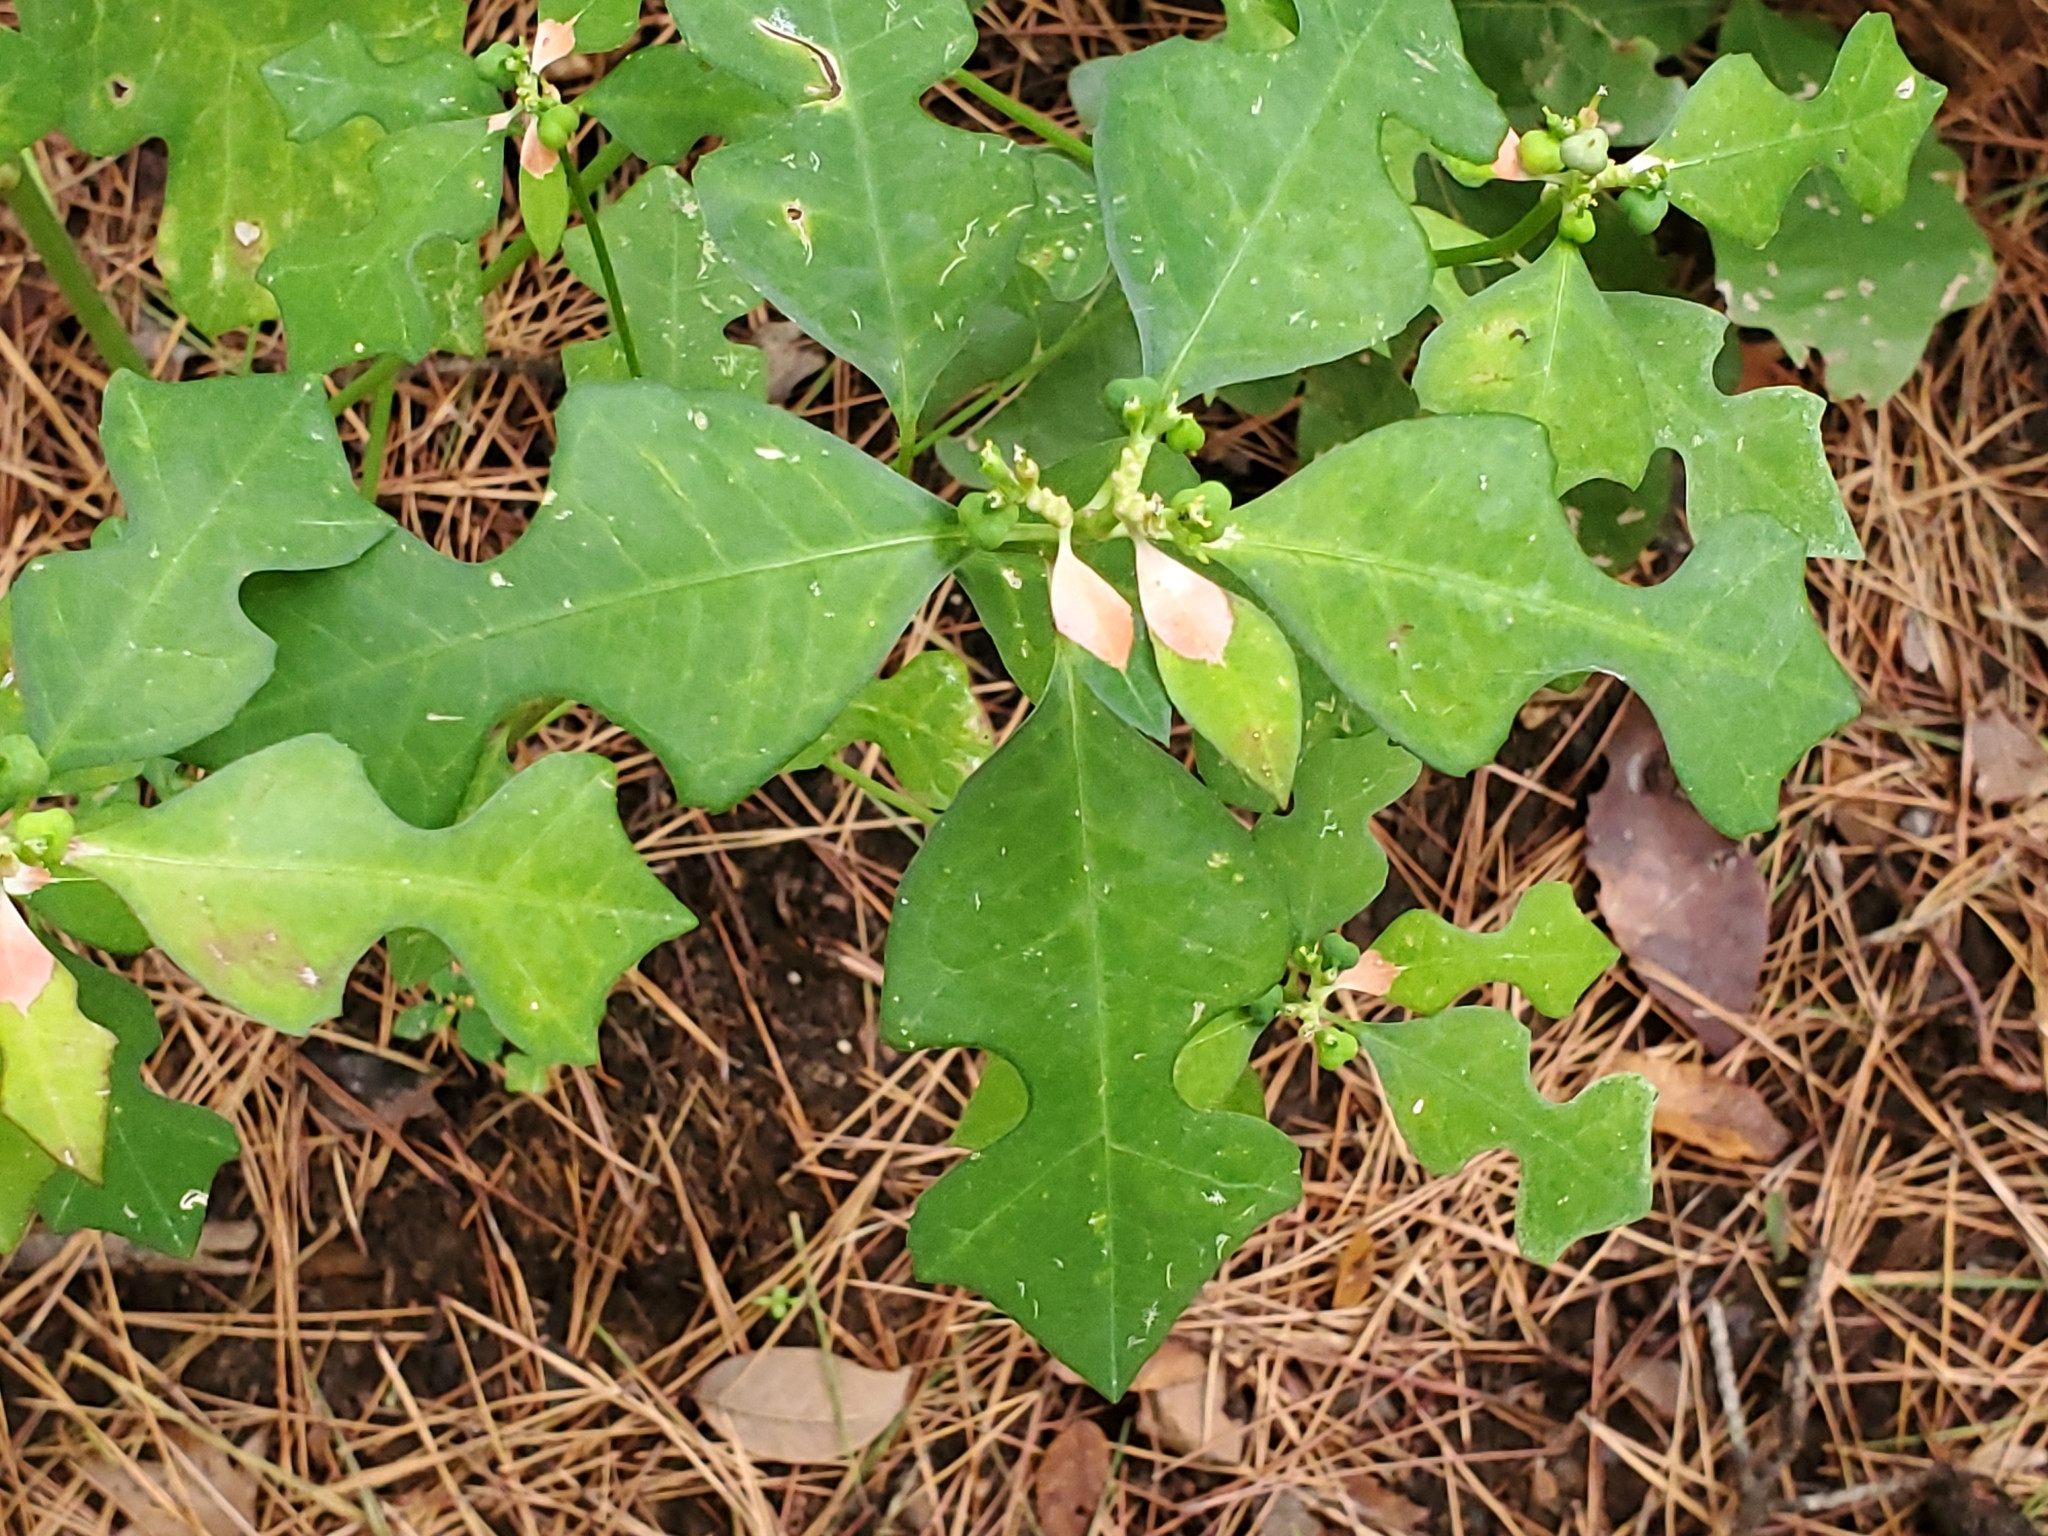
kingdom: Plantae
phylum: Tracheophyta
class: Magnoliopsida
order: Malpighiales
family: Euphorbiaceae
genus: Euphorbia
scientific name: Euphorbia heterophylla
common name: Mexican fireplant
